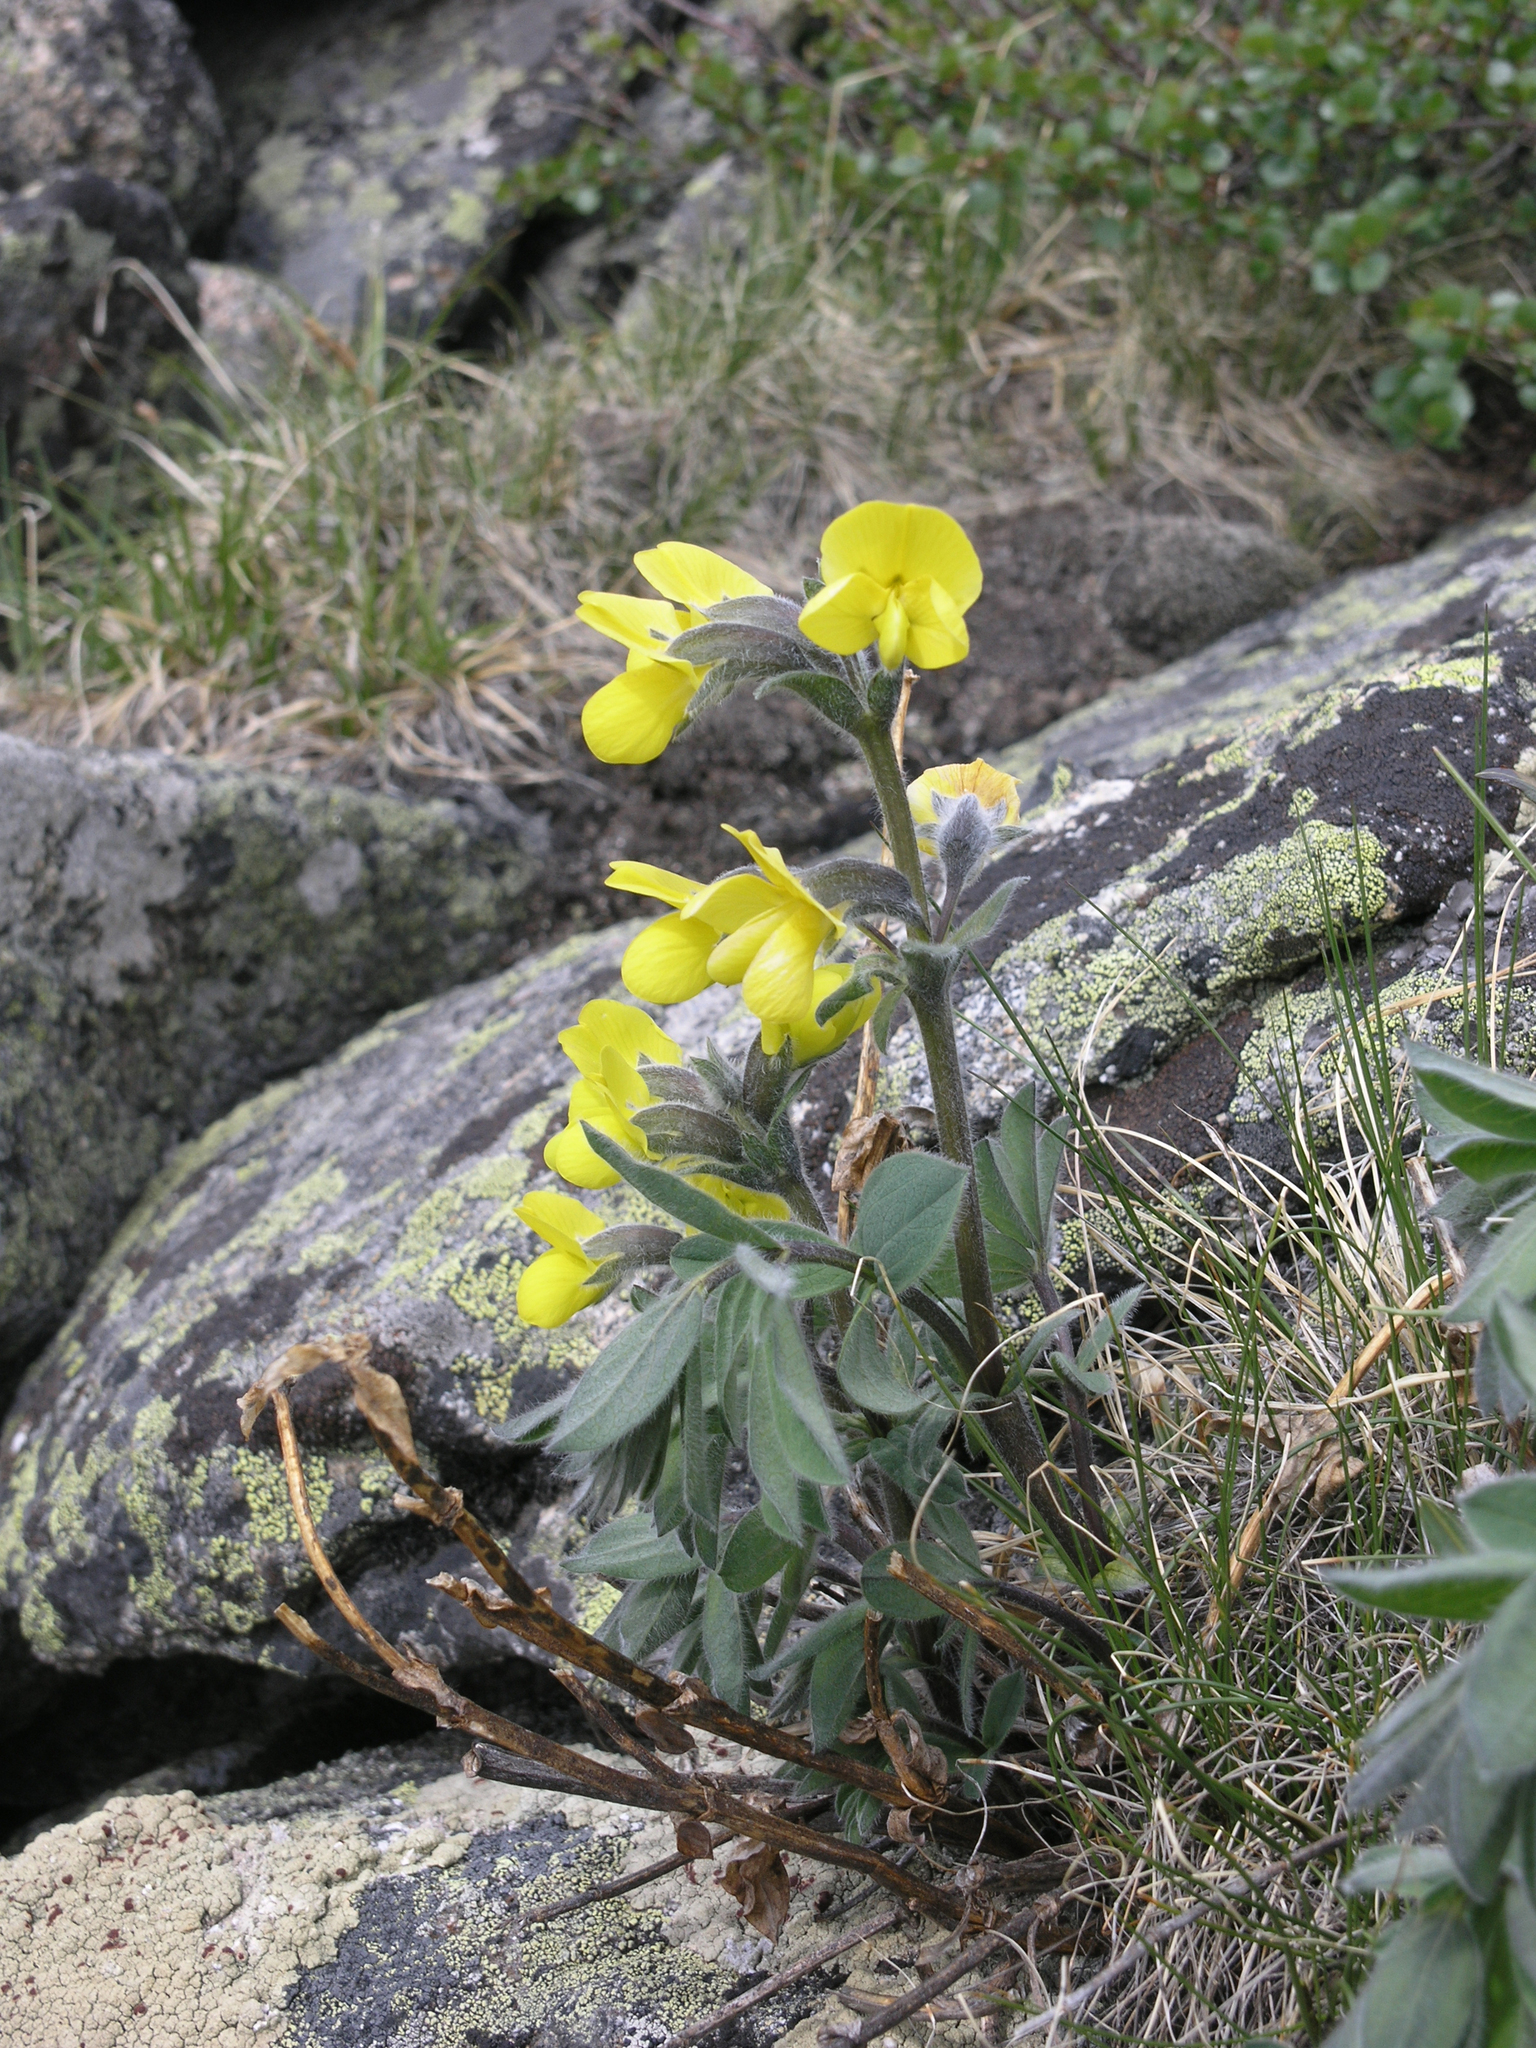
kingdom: Plantae
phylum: Tracheophyta
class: Magnoliopsida
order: Fabales
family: Fabaceae
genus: Thermopsis
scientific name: Thermopsis alpina
